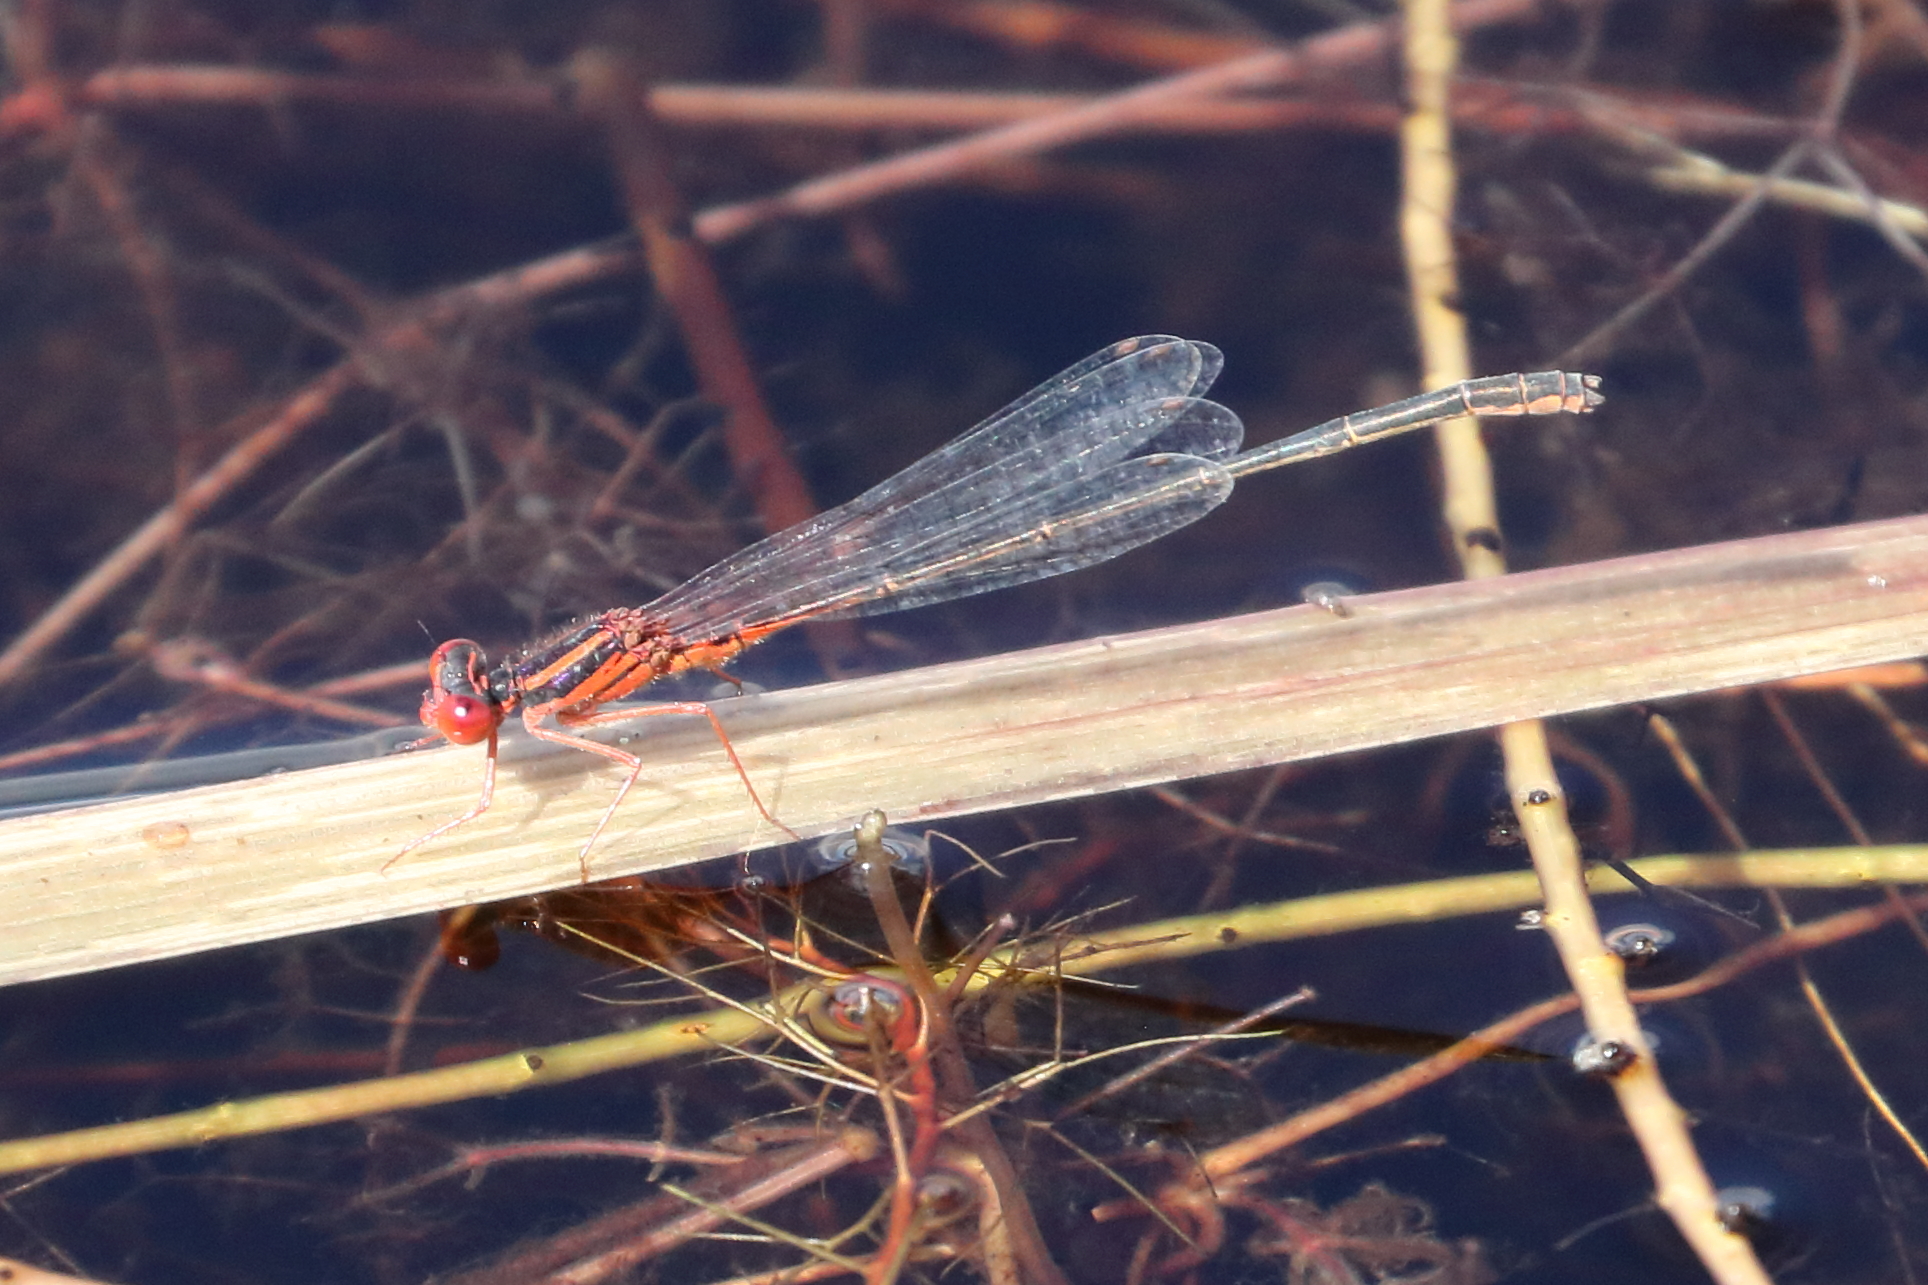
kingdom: Animalia
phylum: Arthropoda
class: Insecta
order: Odonata
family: Coenagrionidae
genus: Enallagma
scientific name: Enallagma pictum
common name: Scarlet bluet
